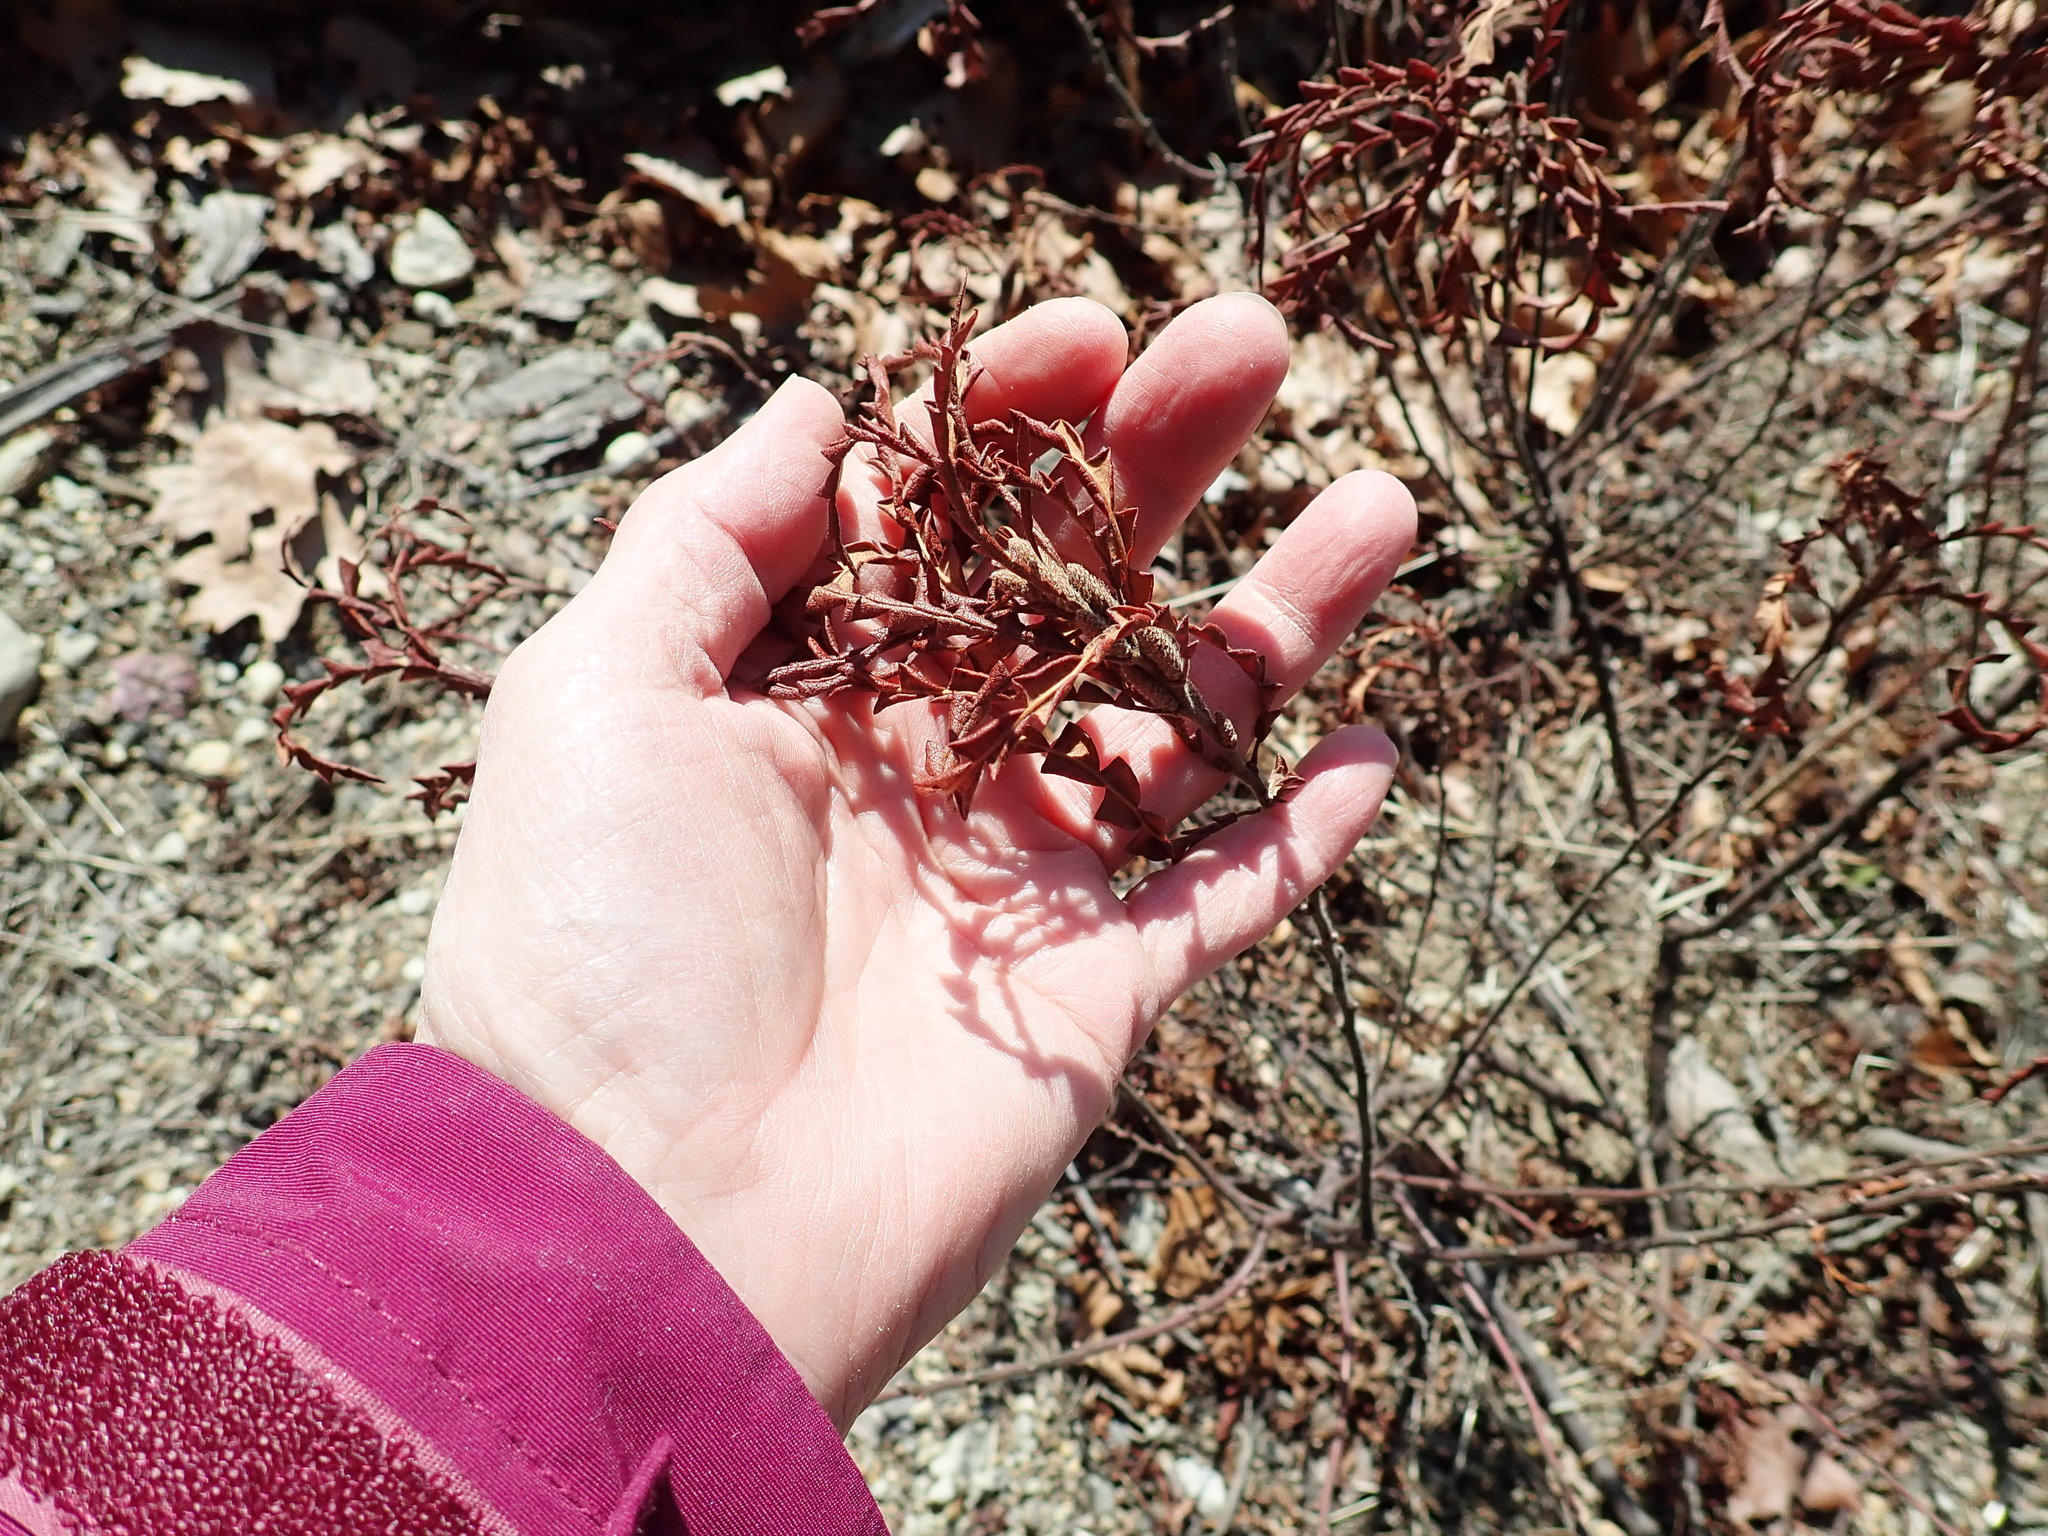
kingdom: Plantae
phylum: Tracheophyta
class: Magnoliopsida
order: Fagales
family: Myricaceae
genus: Comptonia
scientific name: Comptonia peregrina
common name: Sweet-fern
